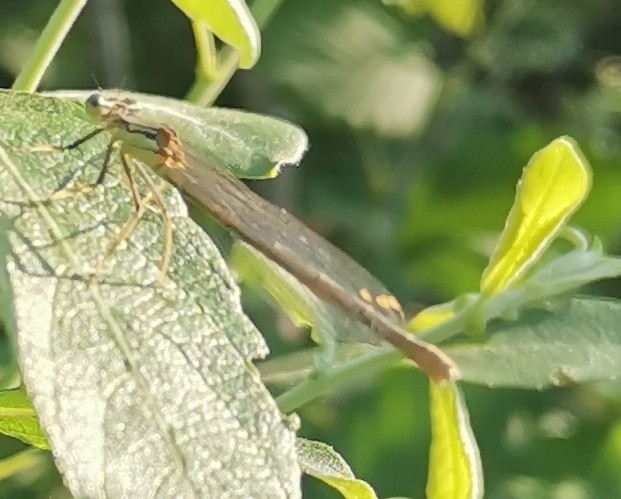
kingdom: Animalia
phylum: Arthropoda
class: Insecta
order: Odonata
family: Platycnemididae
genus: Platycnemis
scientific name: Platycnemis pennipes
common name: White-legged damselfly
